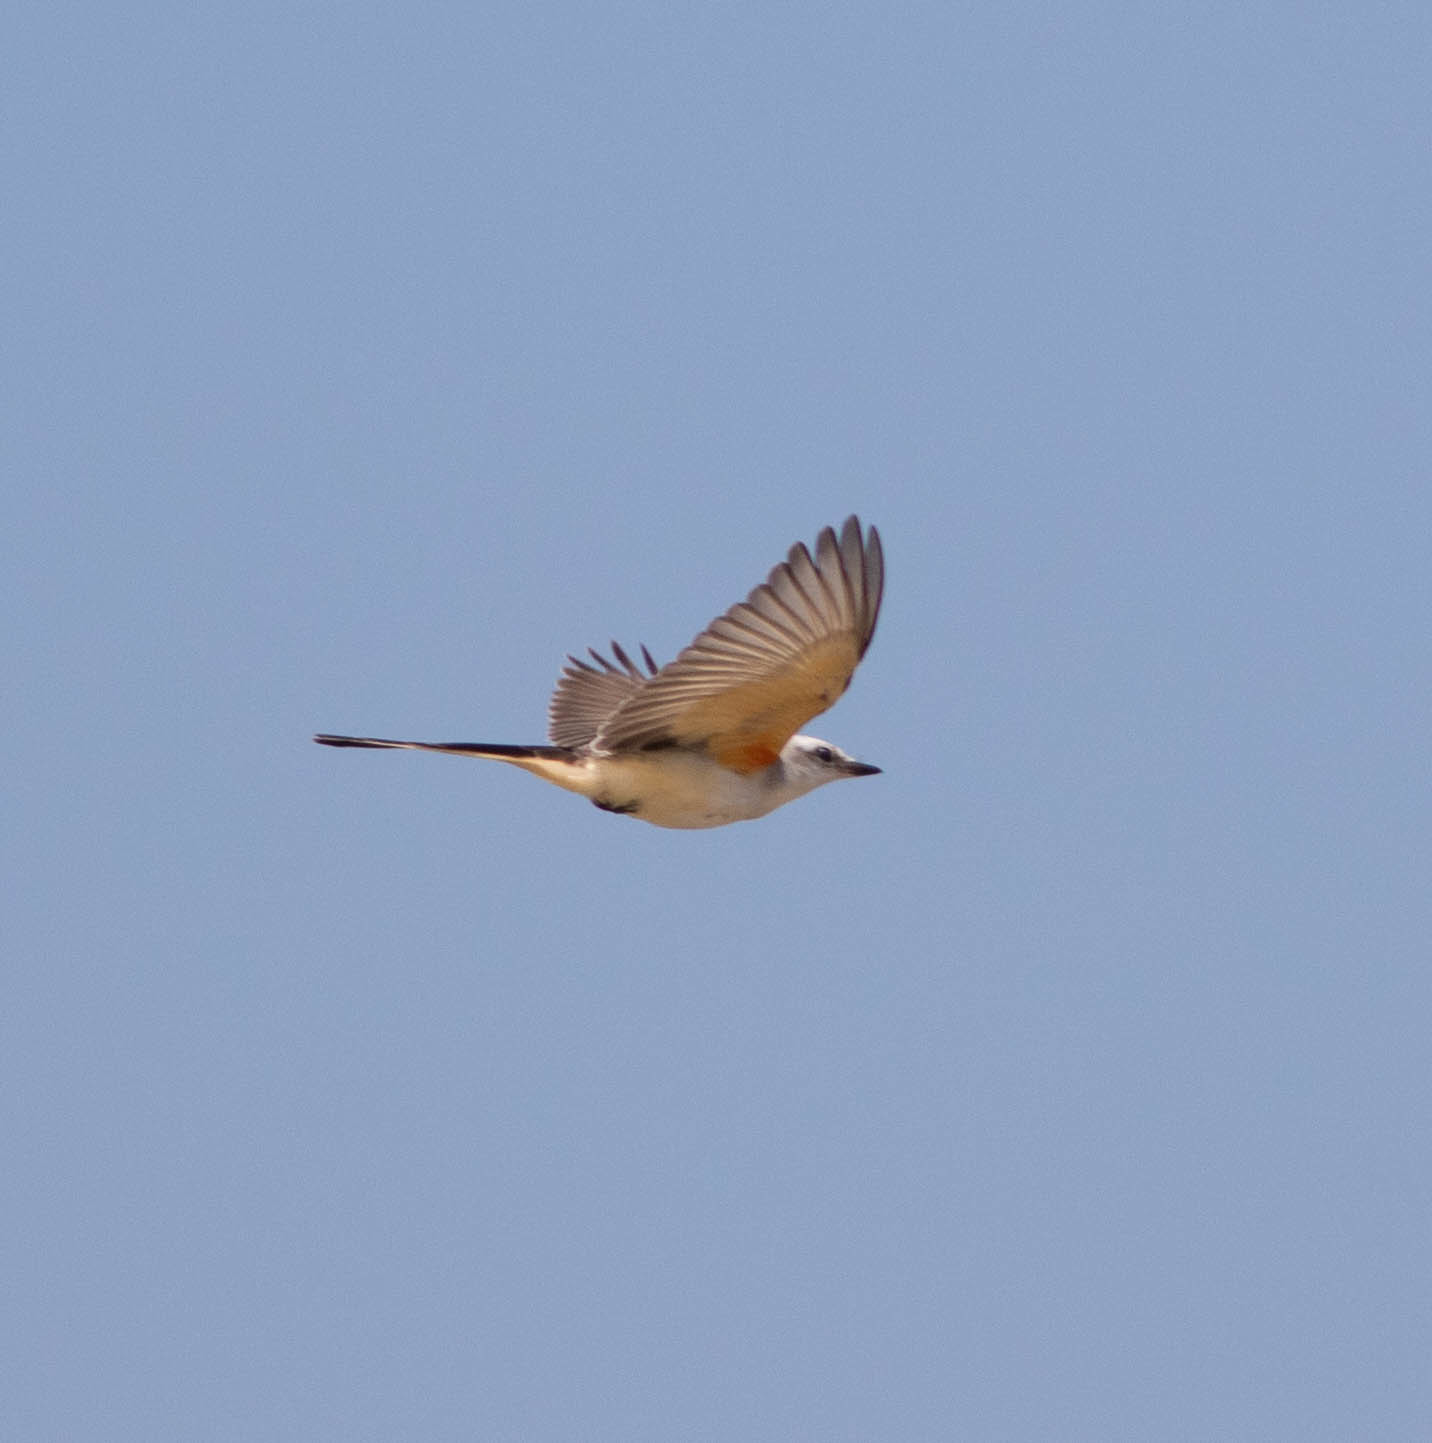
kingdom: Animalia
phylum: Chordata
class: Aves
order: Passeriformes
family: Tyrannidae
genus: Tyrannus
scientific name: Tyrannus forficatus
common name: Scissor-tailed flycatcher
